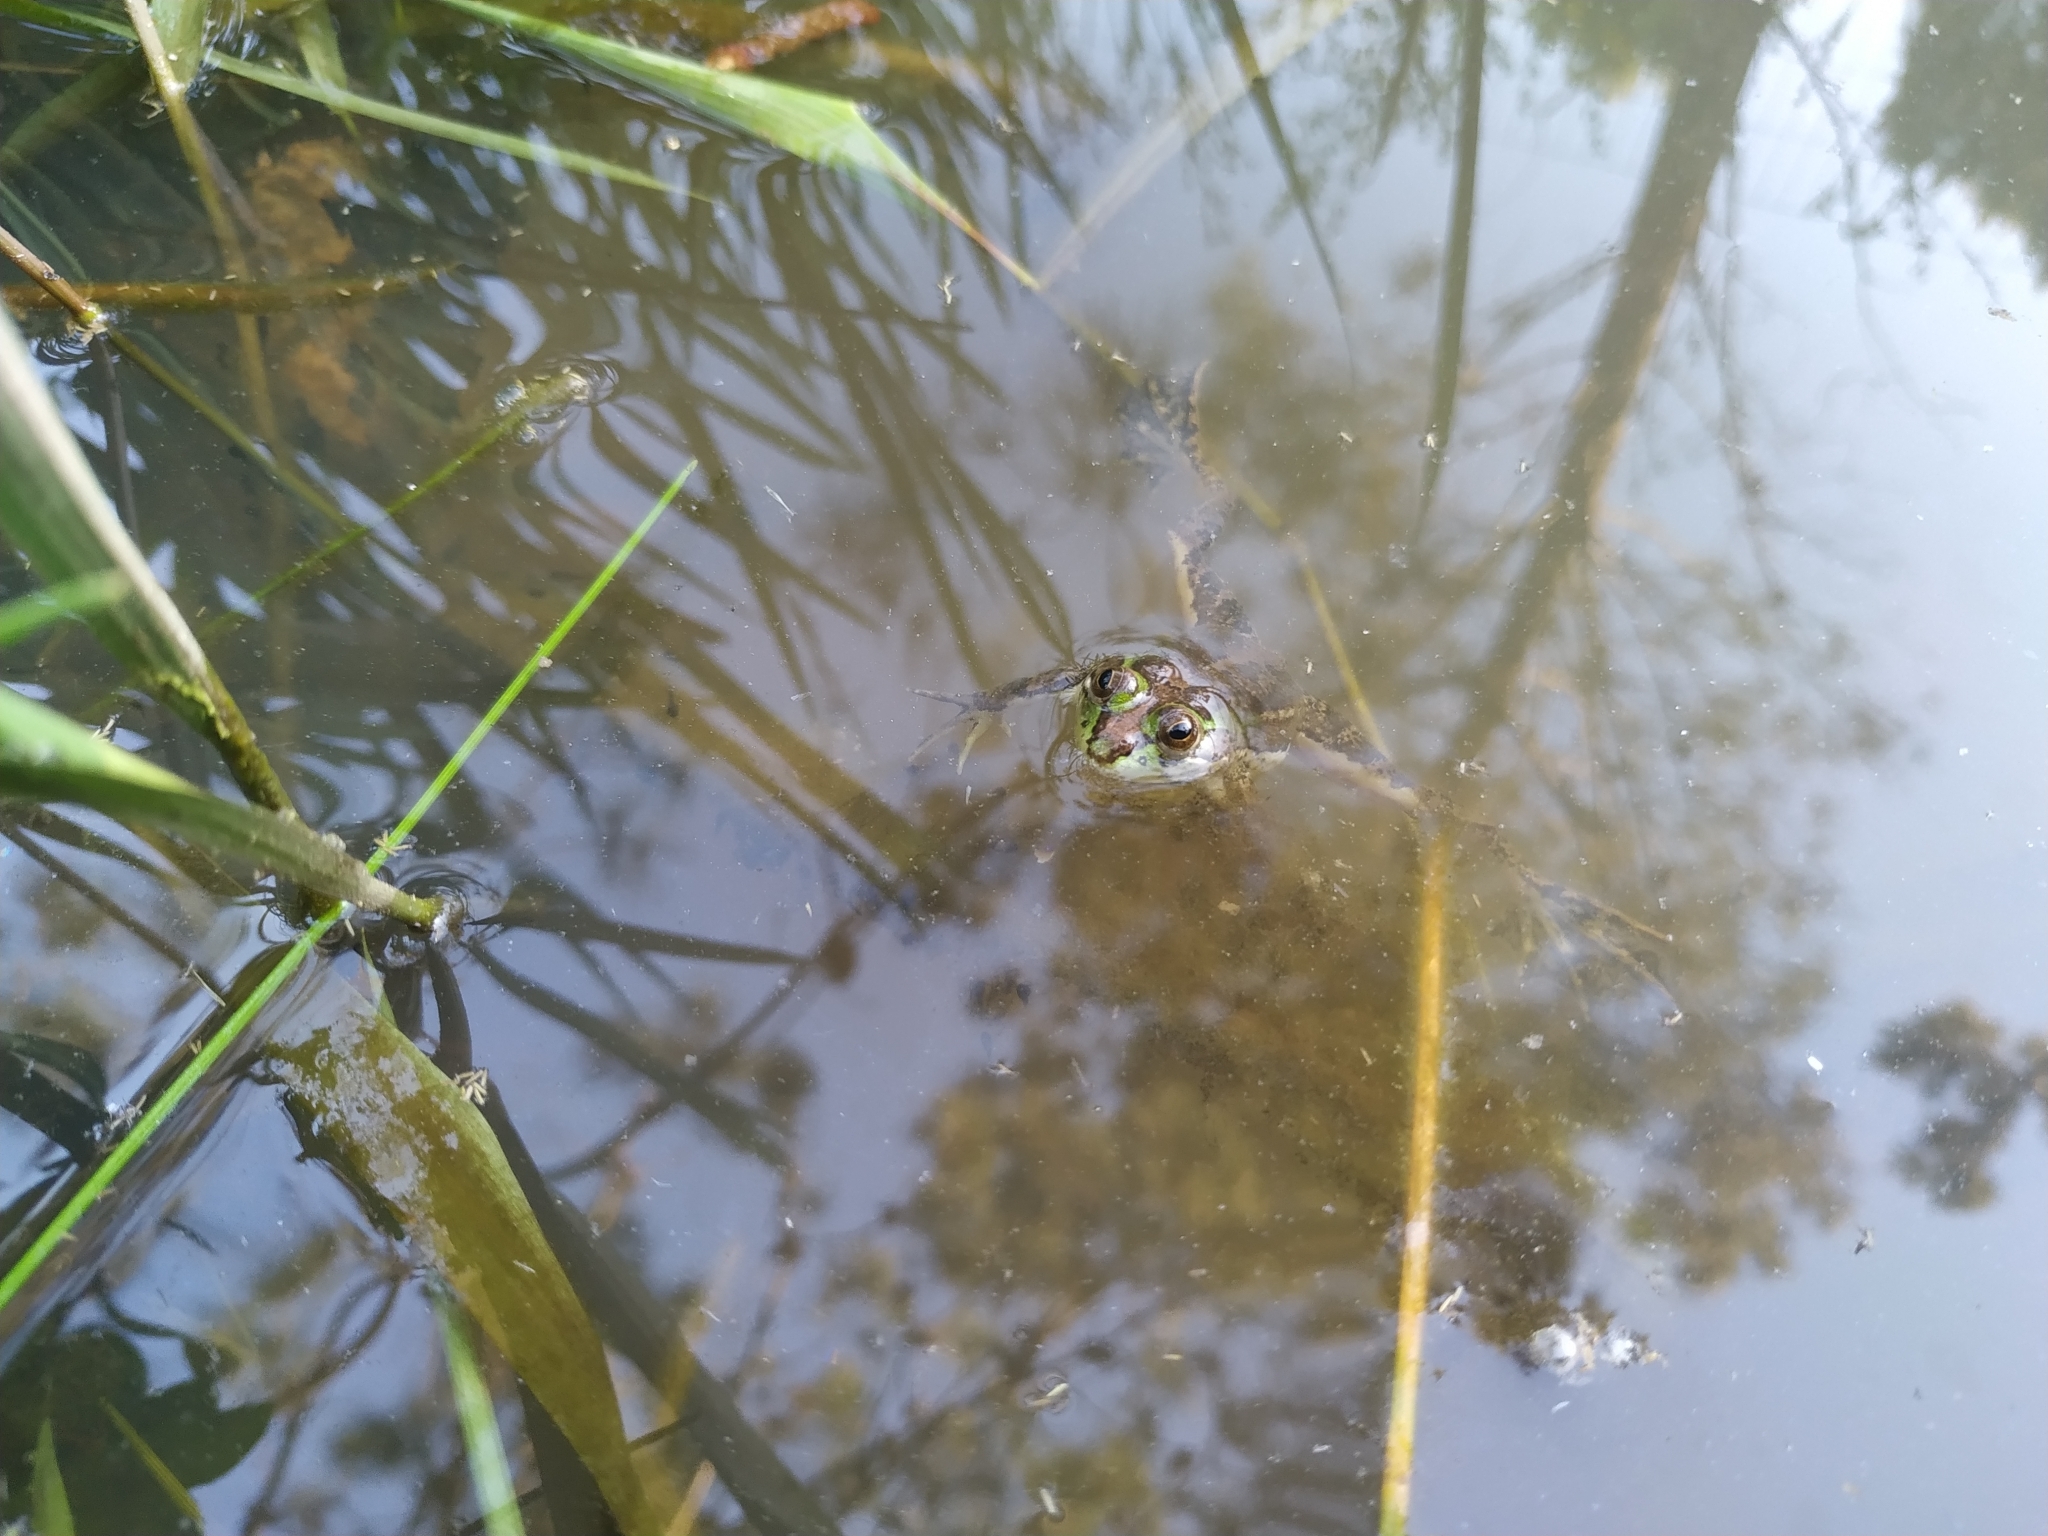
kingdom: Animalia
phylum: Chordata
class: Amphibia
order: Anura
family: Hylidae
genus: Pseudis
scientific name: Pseudis minuta
